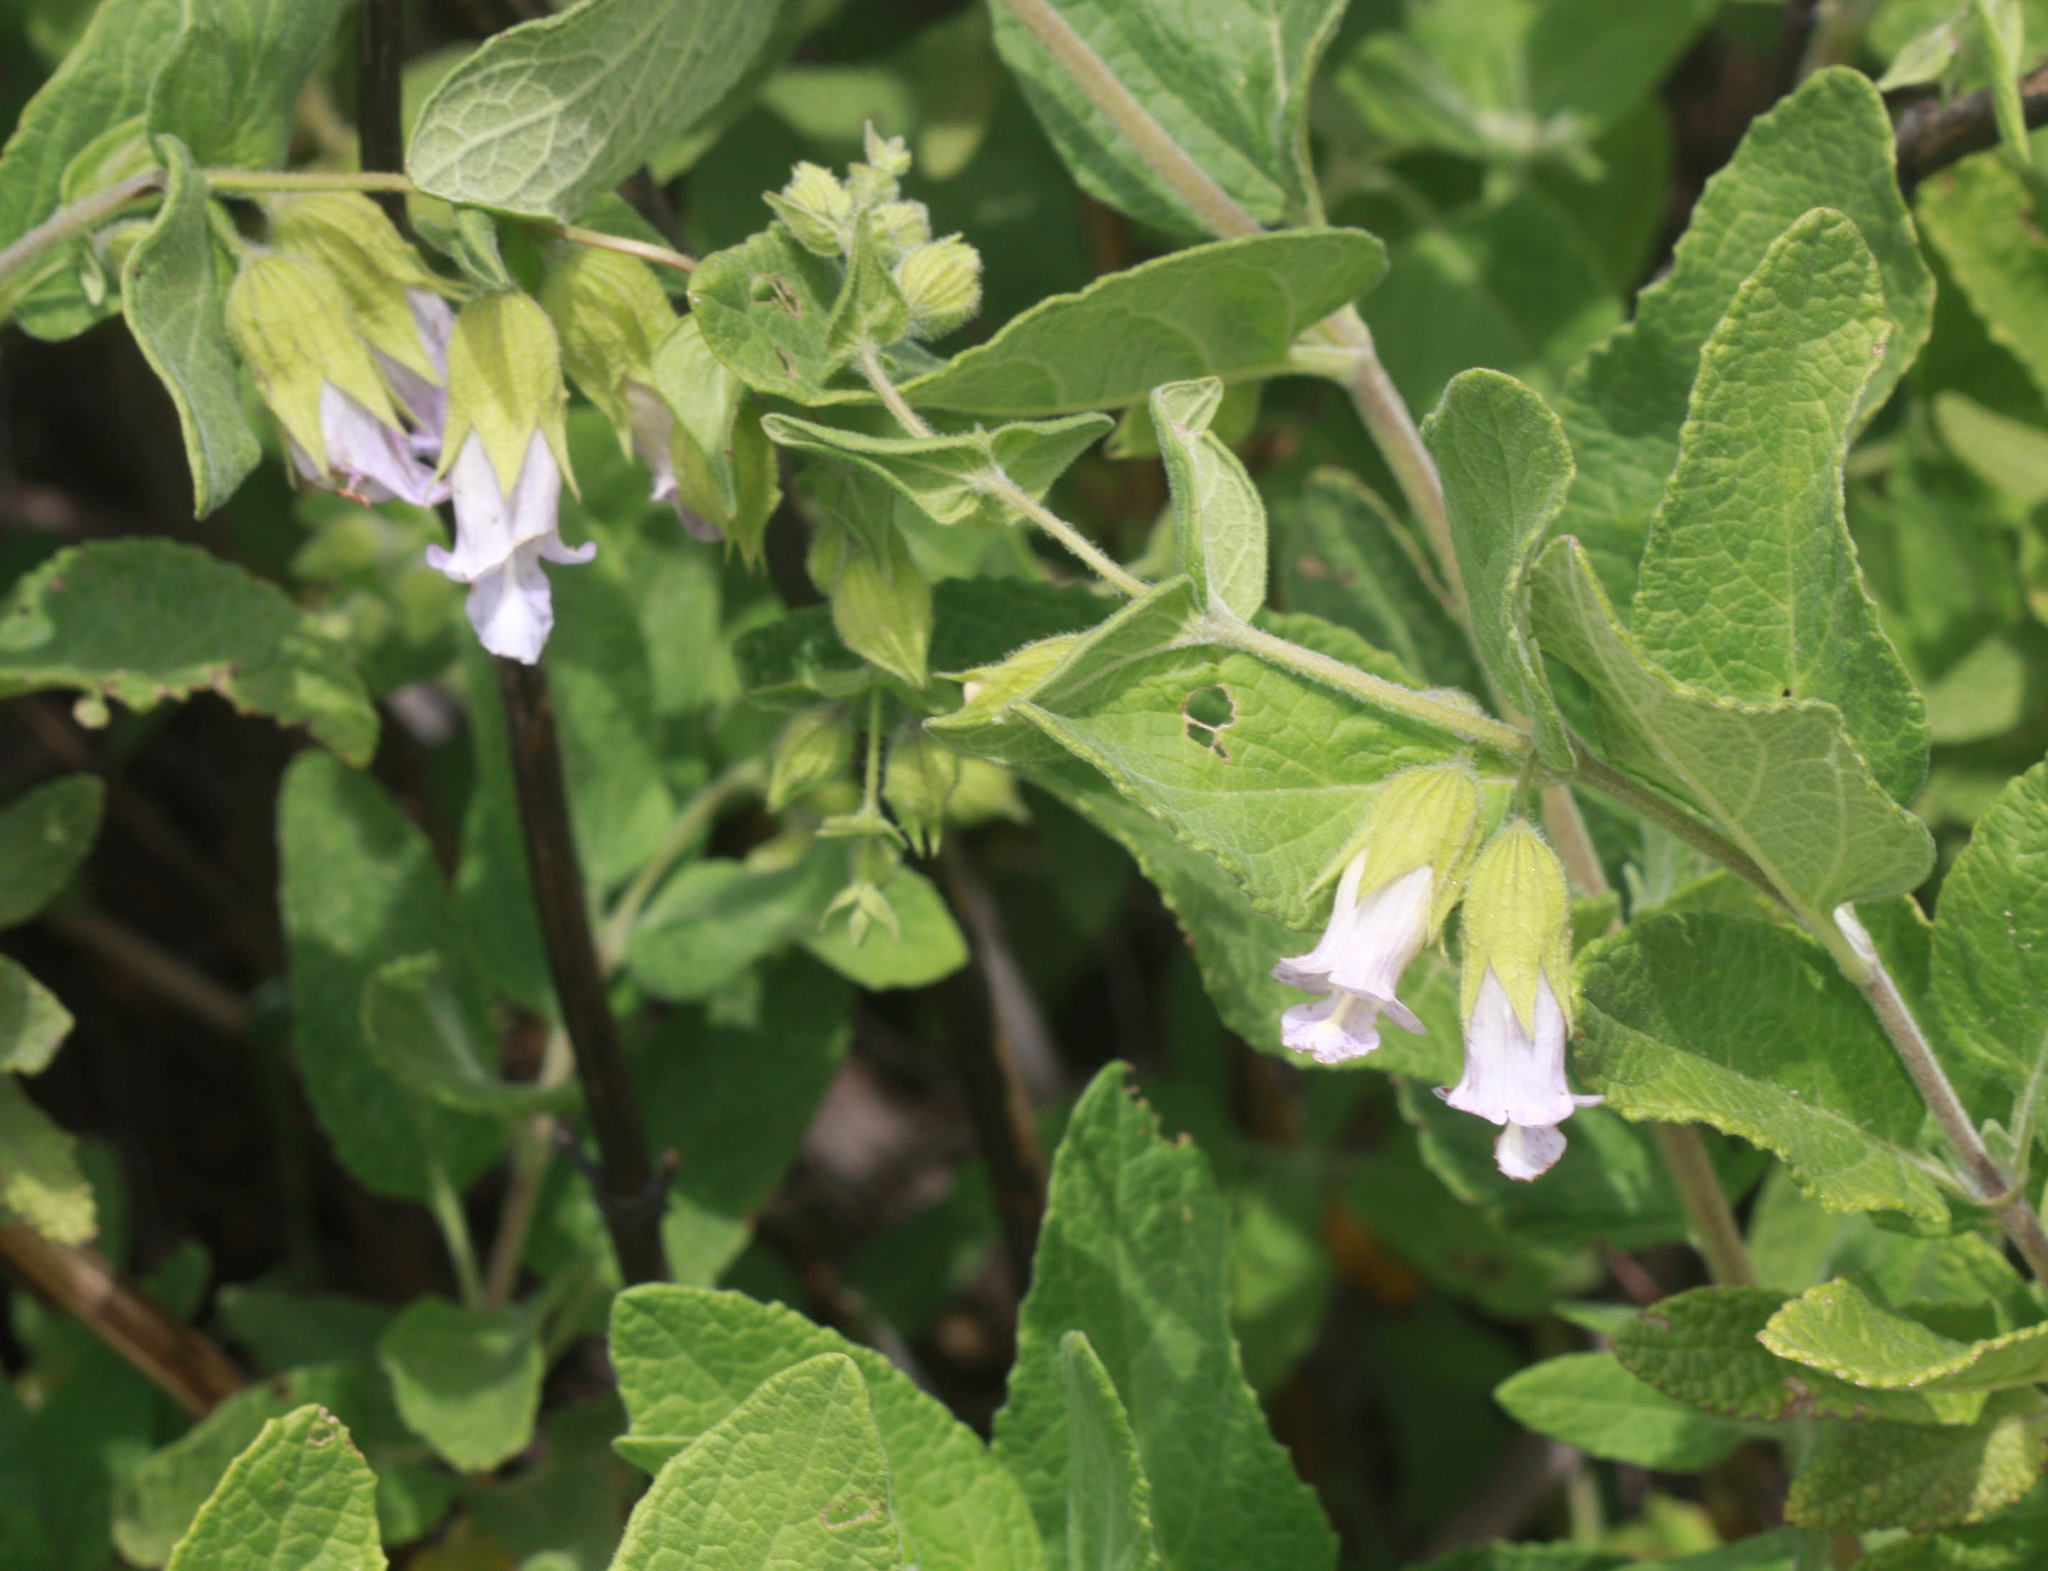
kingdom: Plantae
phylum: Tracheophyta
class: Magnoliopsida
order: Lamiales
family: Lamiaceae
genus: Lepechinia
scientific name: Lepechinia calycina
